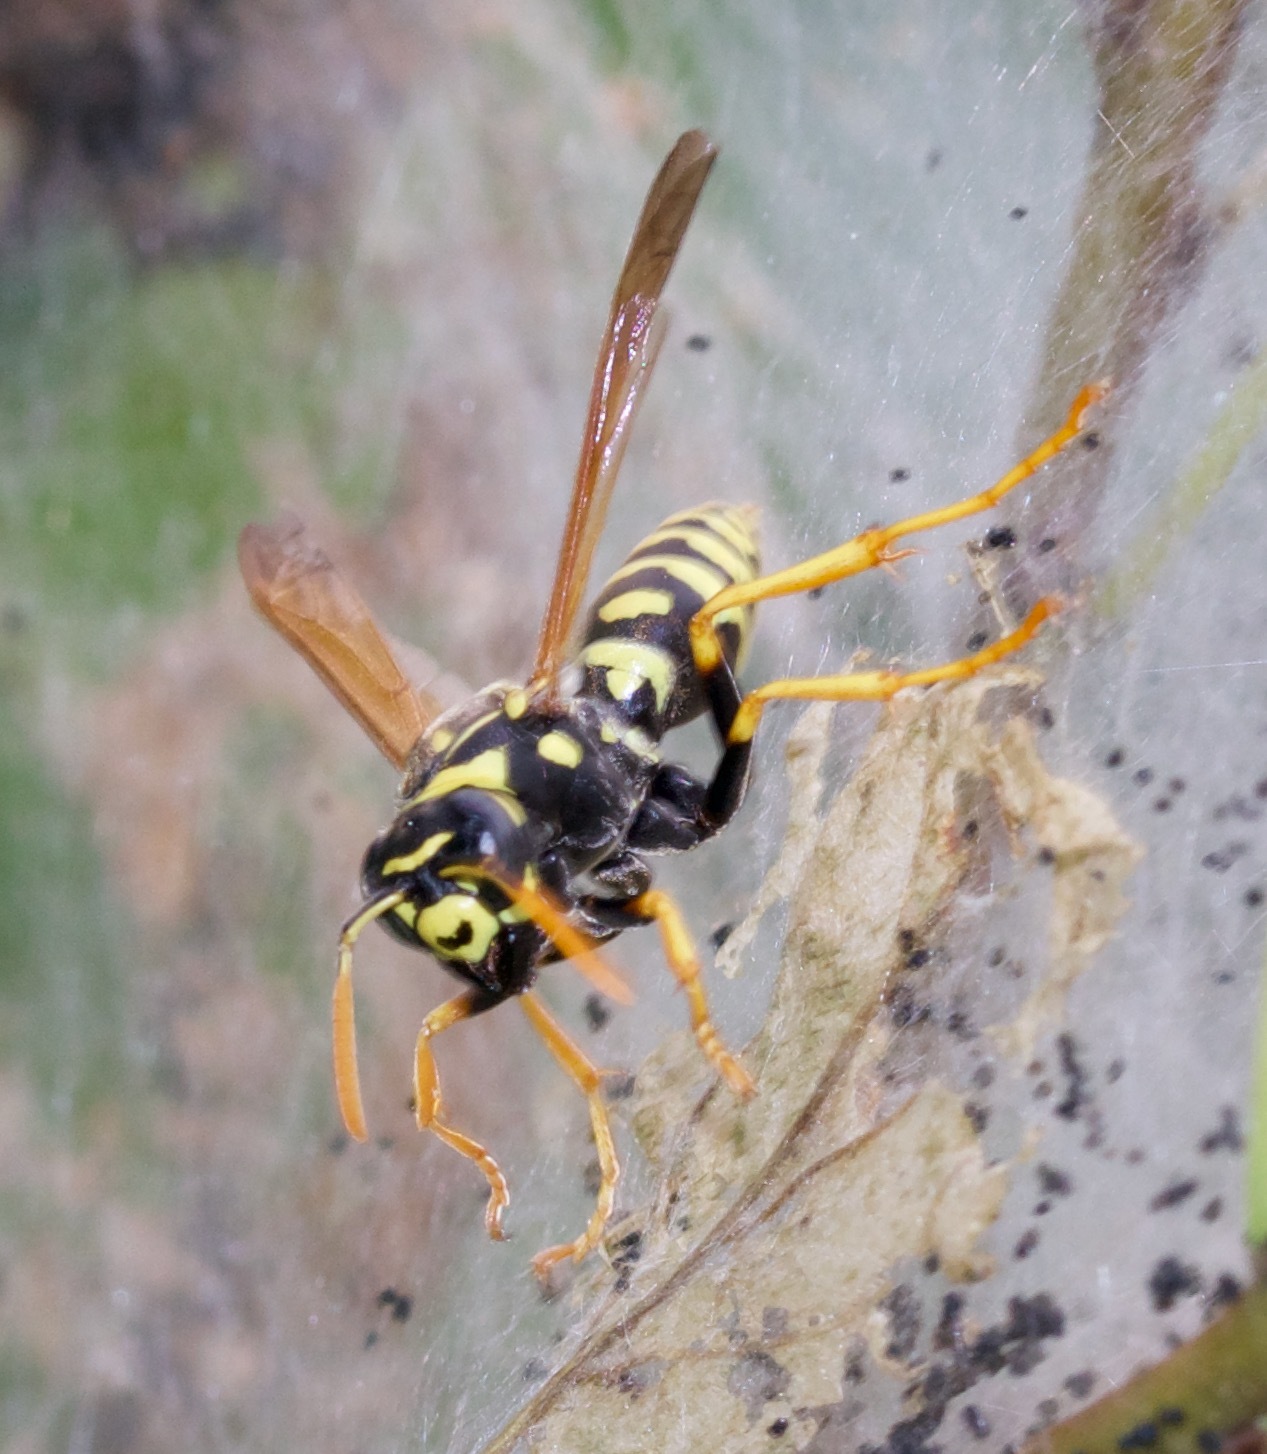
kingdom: Animalia
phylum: Arthropoda
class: Insecta
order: Hymenoptera
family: Eumenidae
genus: Polistes
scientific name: Polistes dominula
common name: Paper wasp
